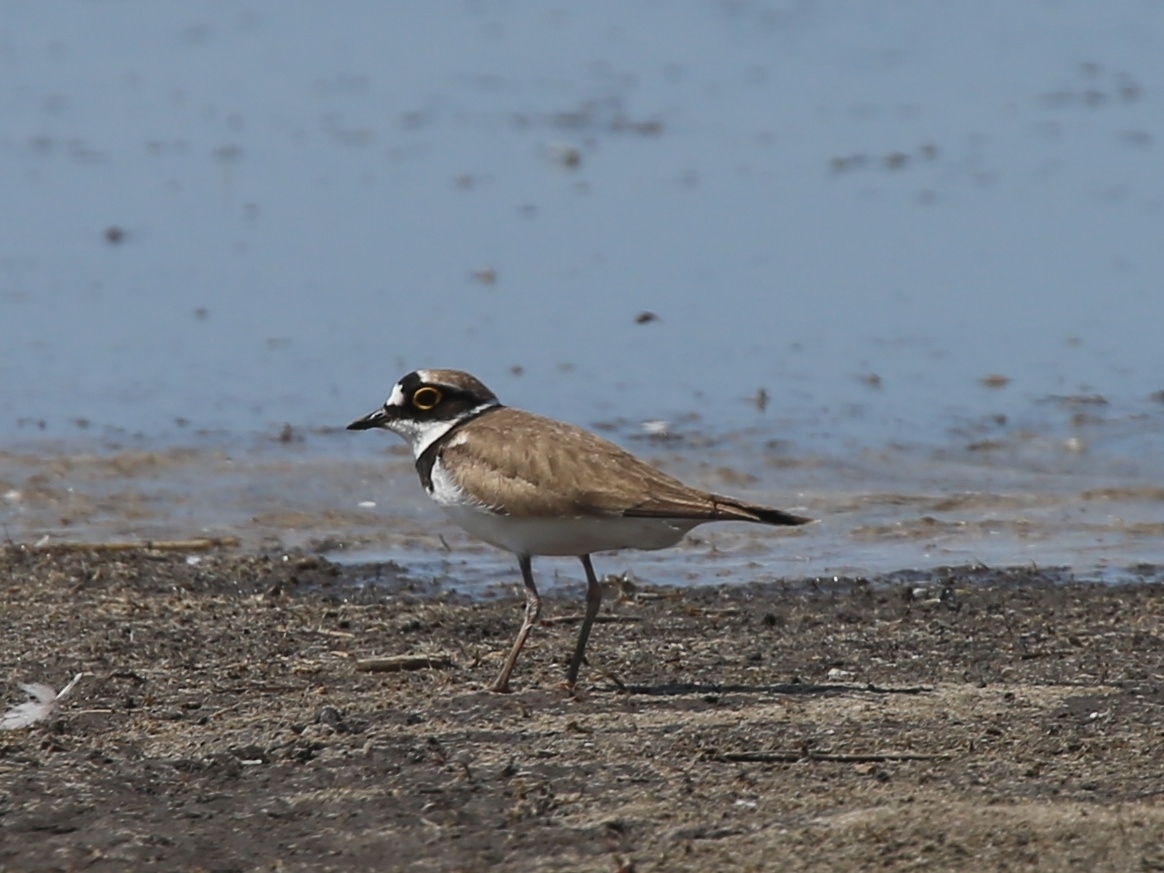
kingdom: Animalia
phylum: Chordata
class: Aves
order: Charadriiformes
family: Charadriidae
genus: Charadrius
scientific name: Charadrius dubius
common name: Little ringed plover
